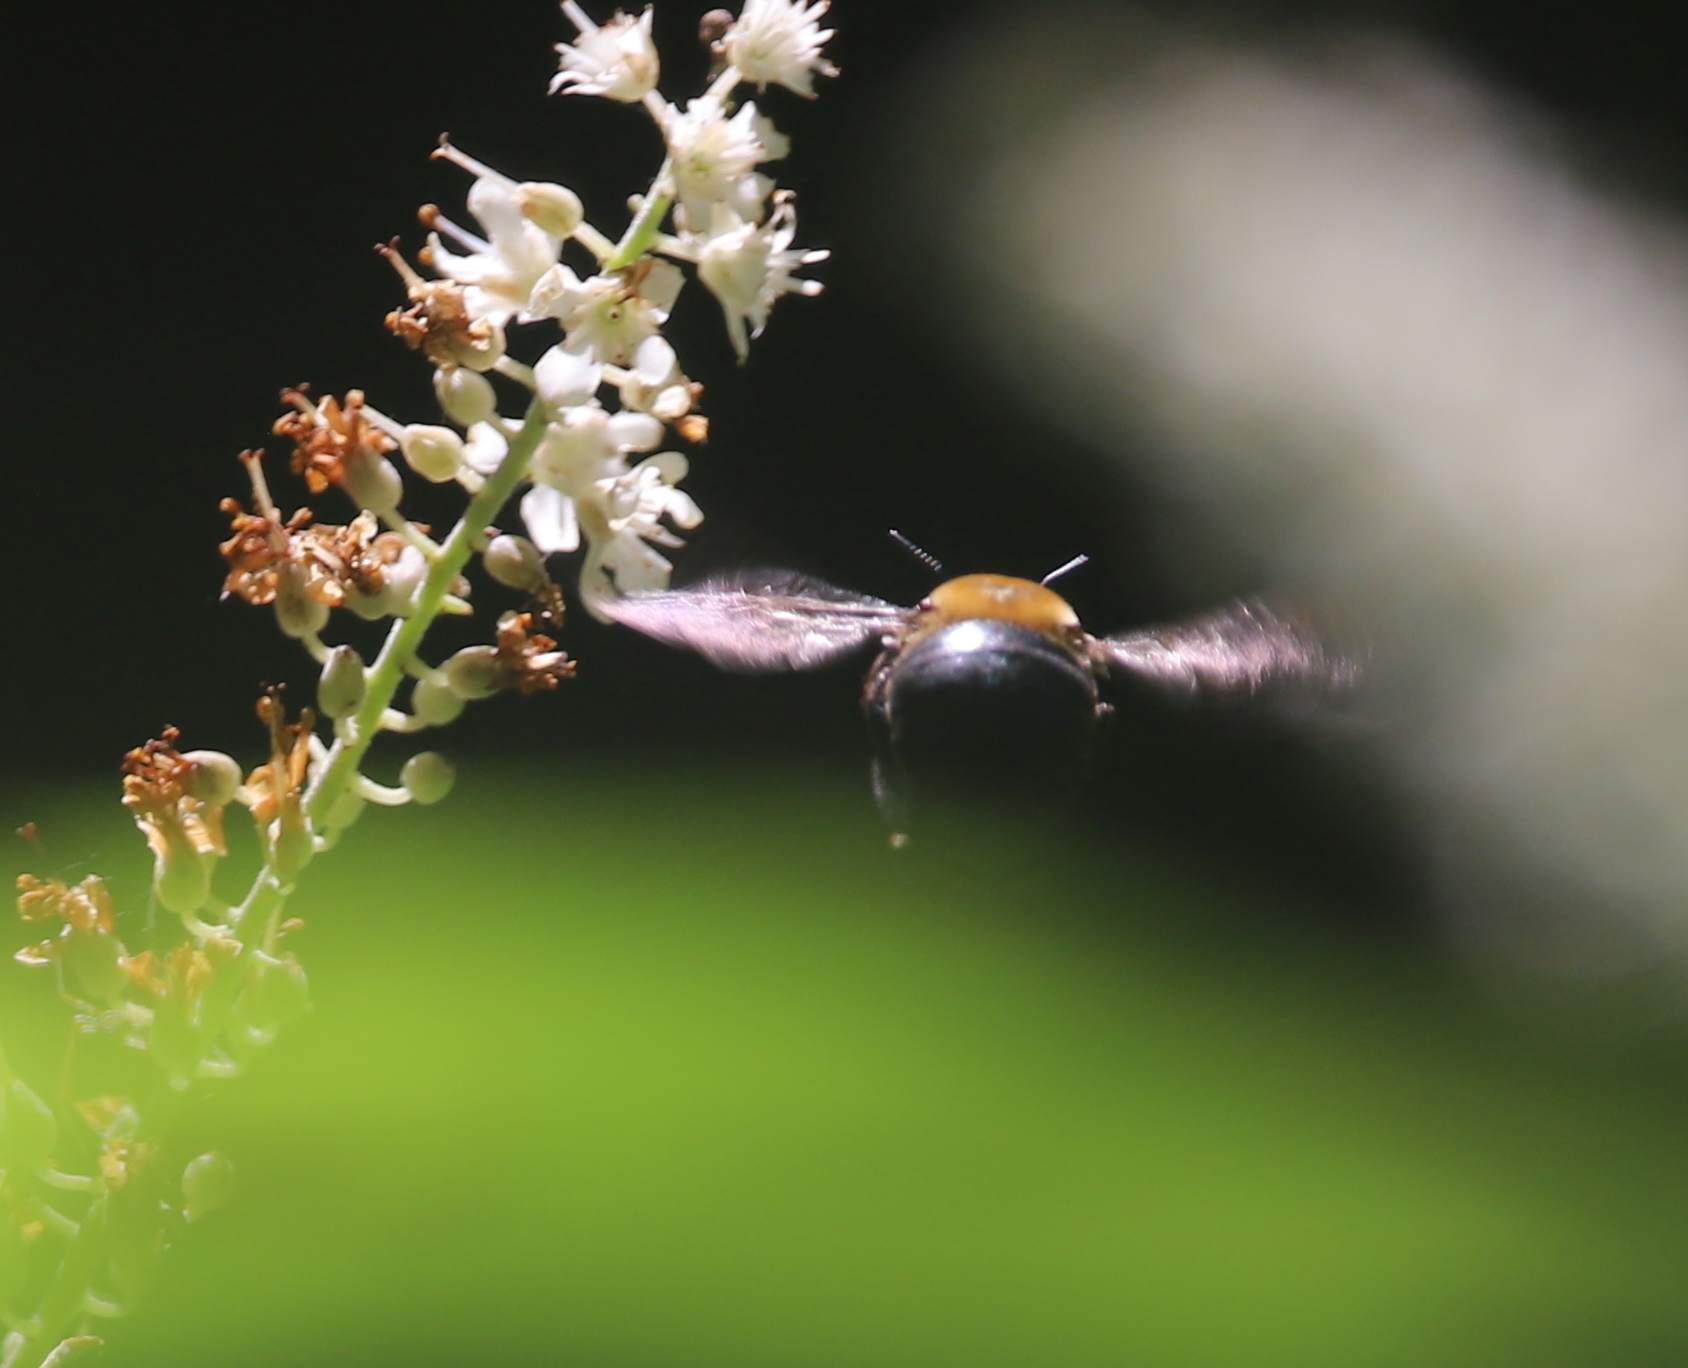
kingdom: Animalia
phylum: Arthropoda
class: Insecta
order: Hymenoptera
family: Apidae
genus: Xylocopa
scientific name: Xylocopa virginica
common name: Carpenter bee
